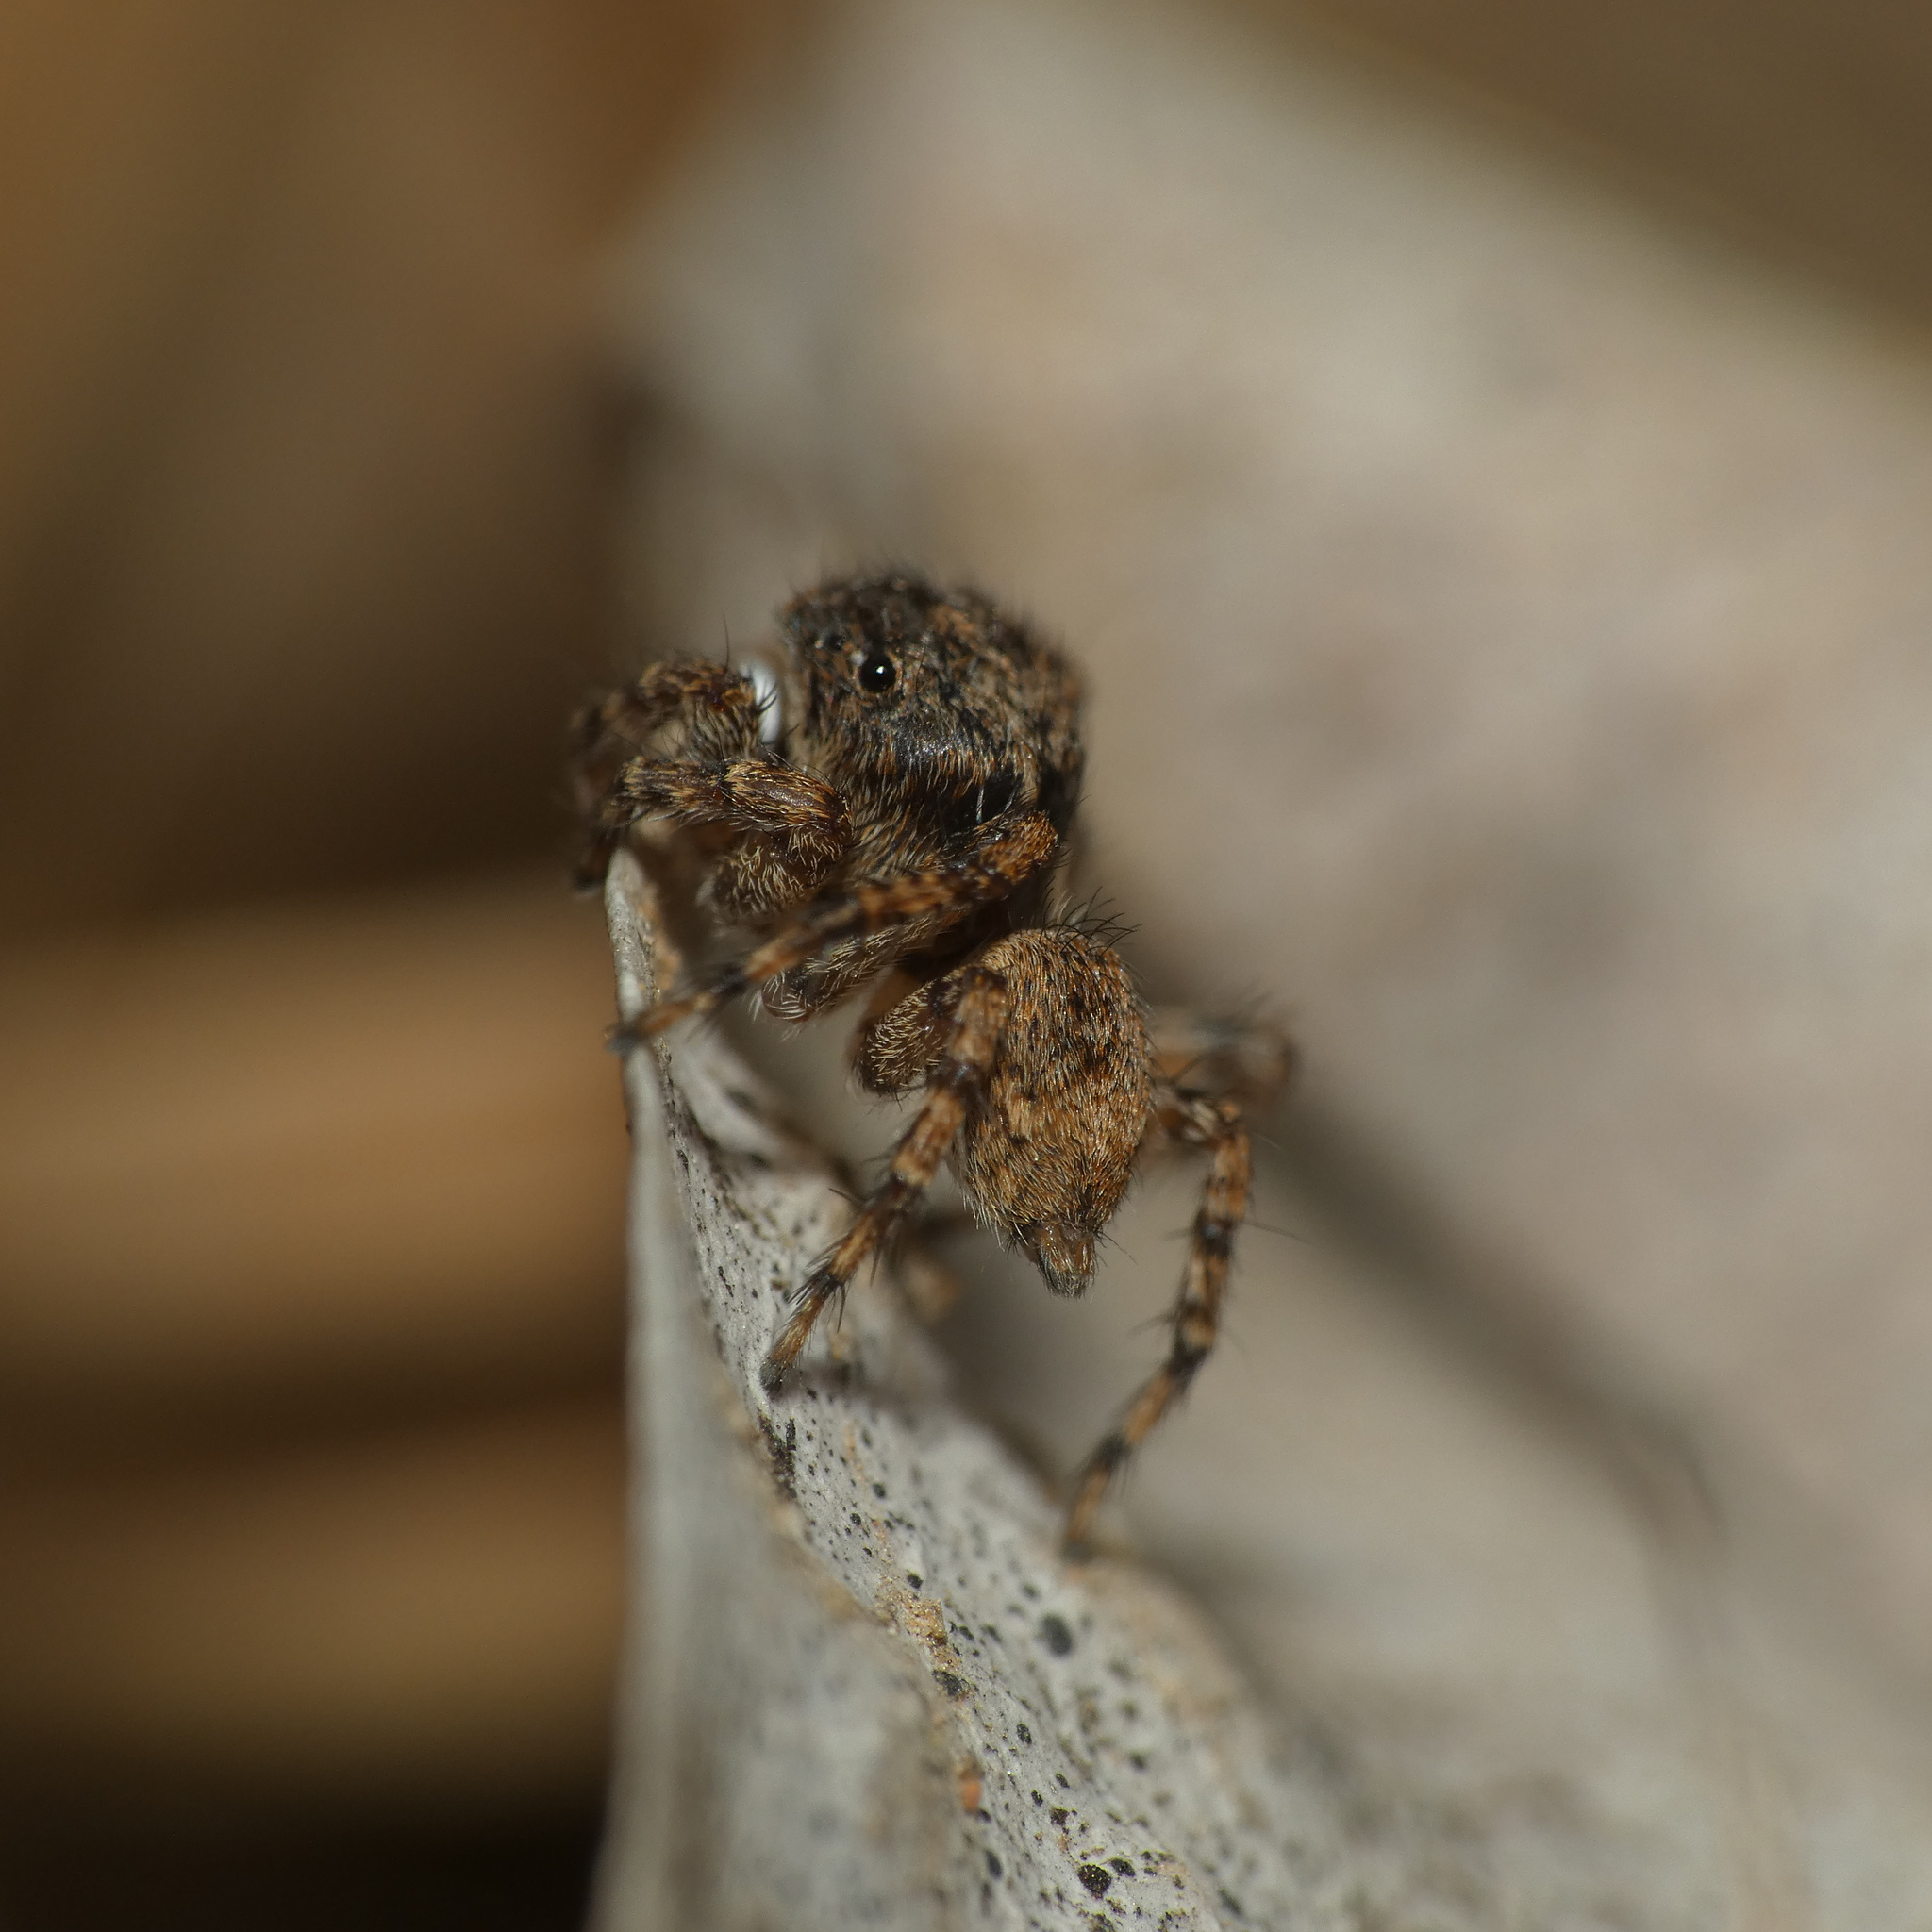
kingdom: Animalia
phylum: Arthropoda
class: Arachnida
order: Araneae
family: Salticidae
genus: Habrocestum
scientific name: Habrocestum africanum
